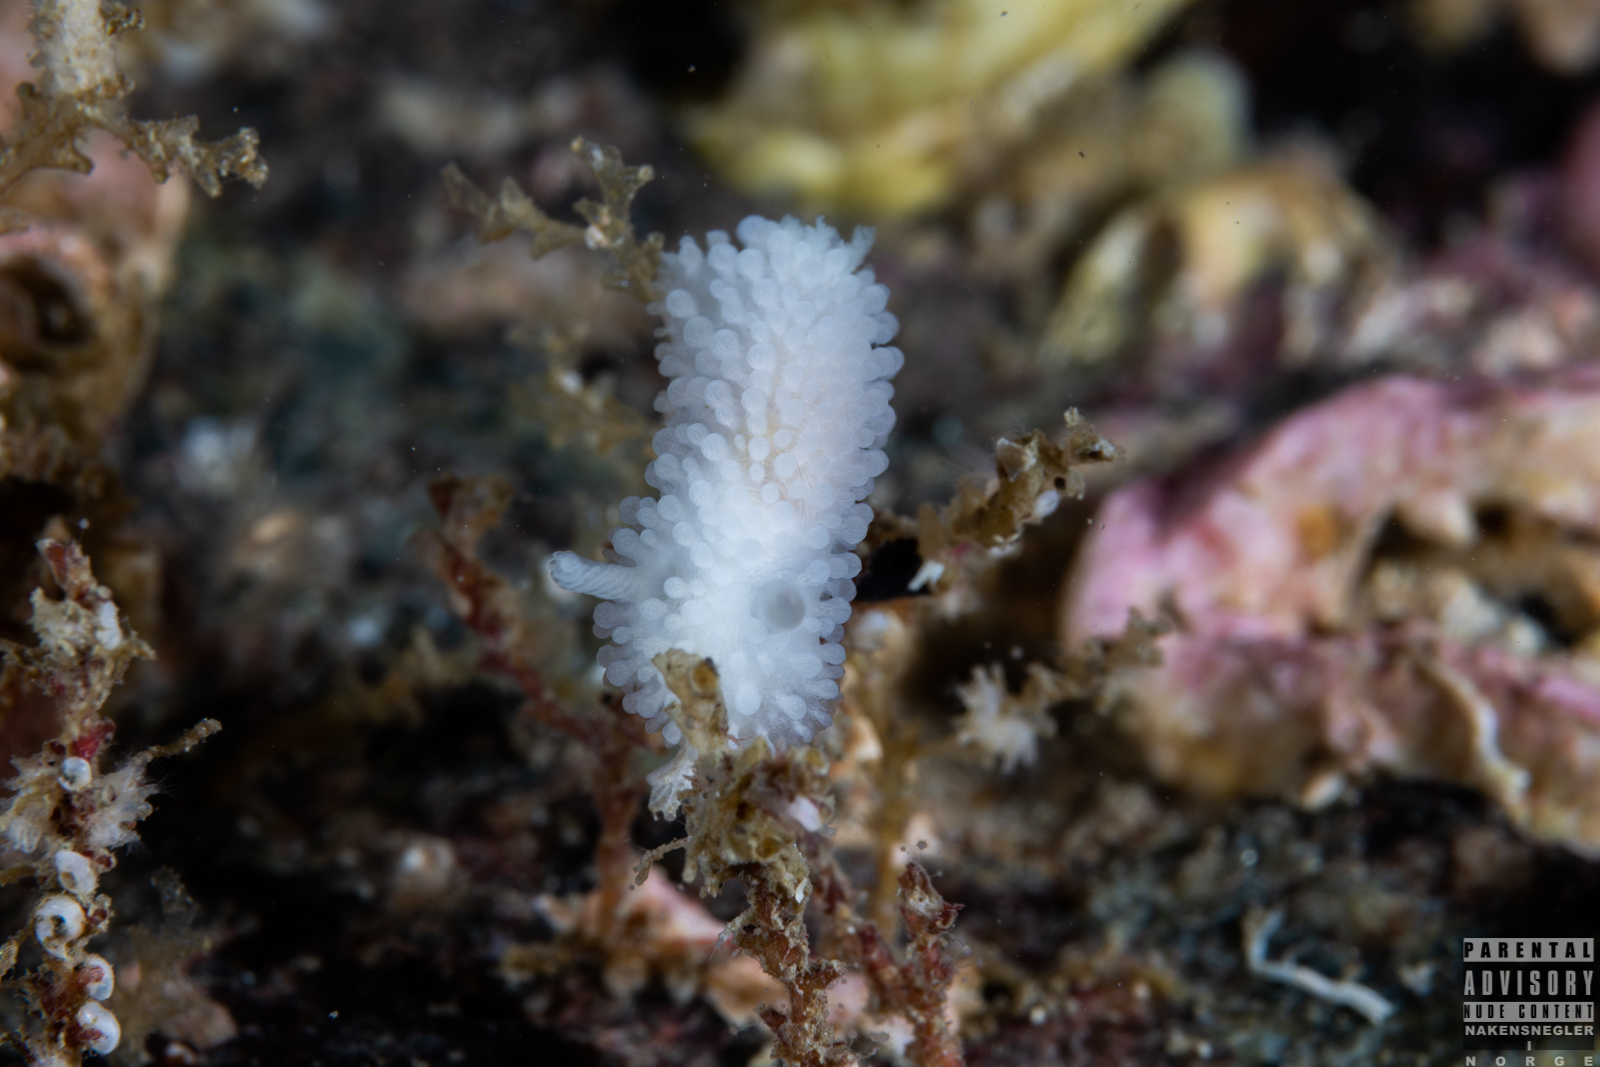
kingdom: Animalia
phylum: Mollusca
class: Gastropoda
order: Nudibranchia
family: Onchidorididae
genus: Onchidoris
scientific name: Onchidoris muricata
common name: Rough doris
